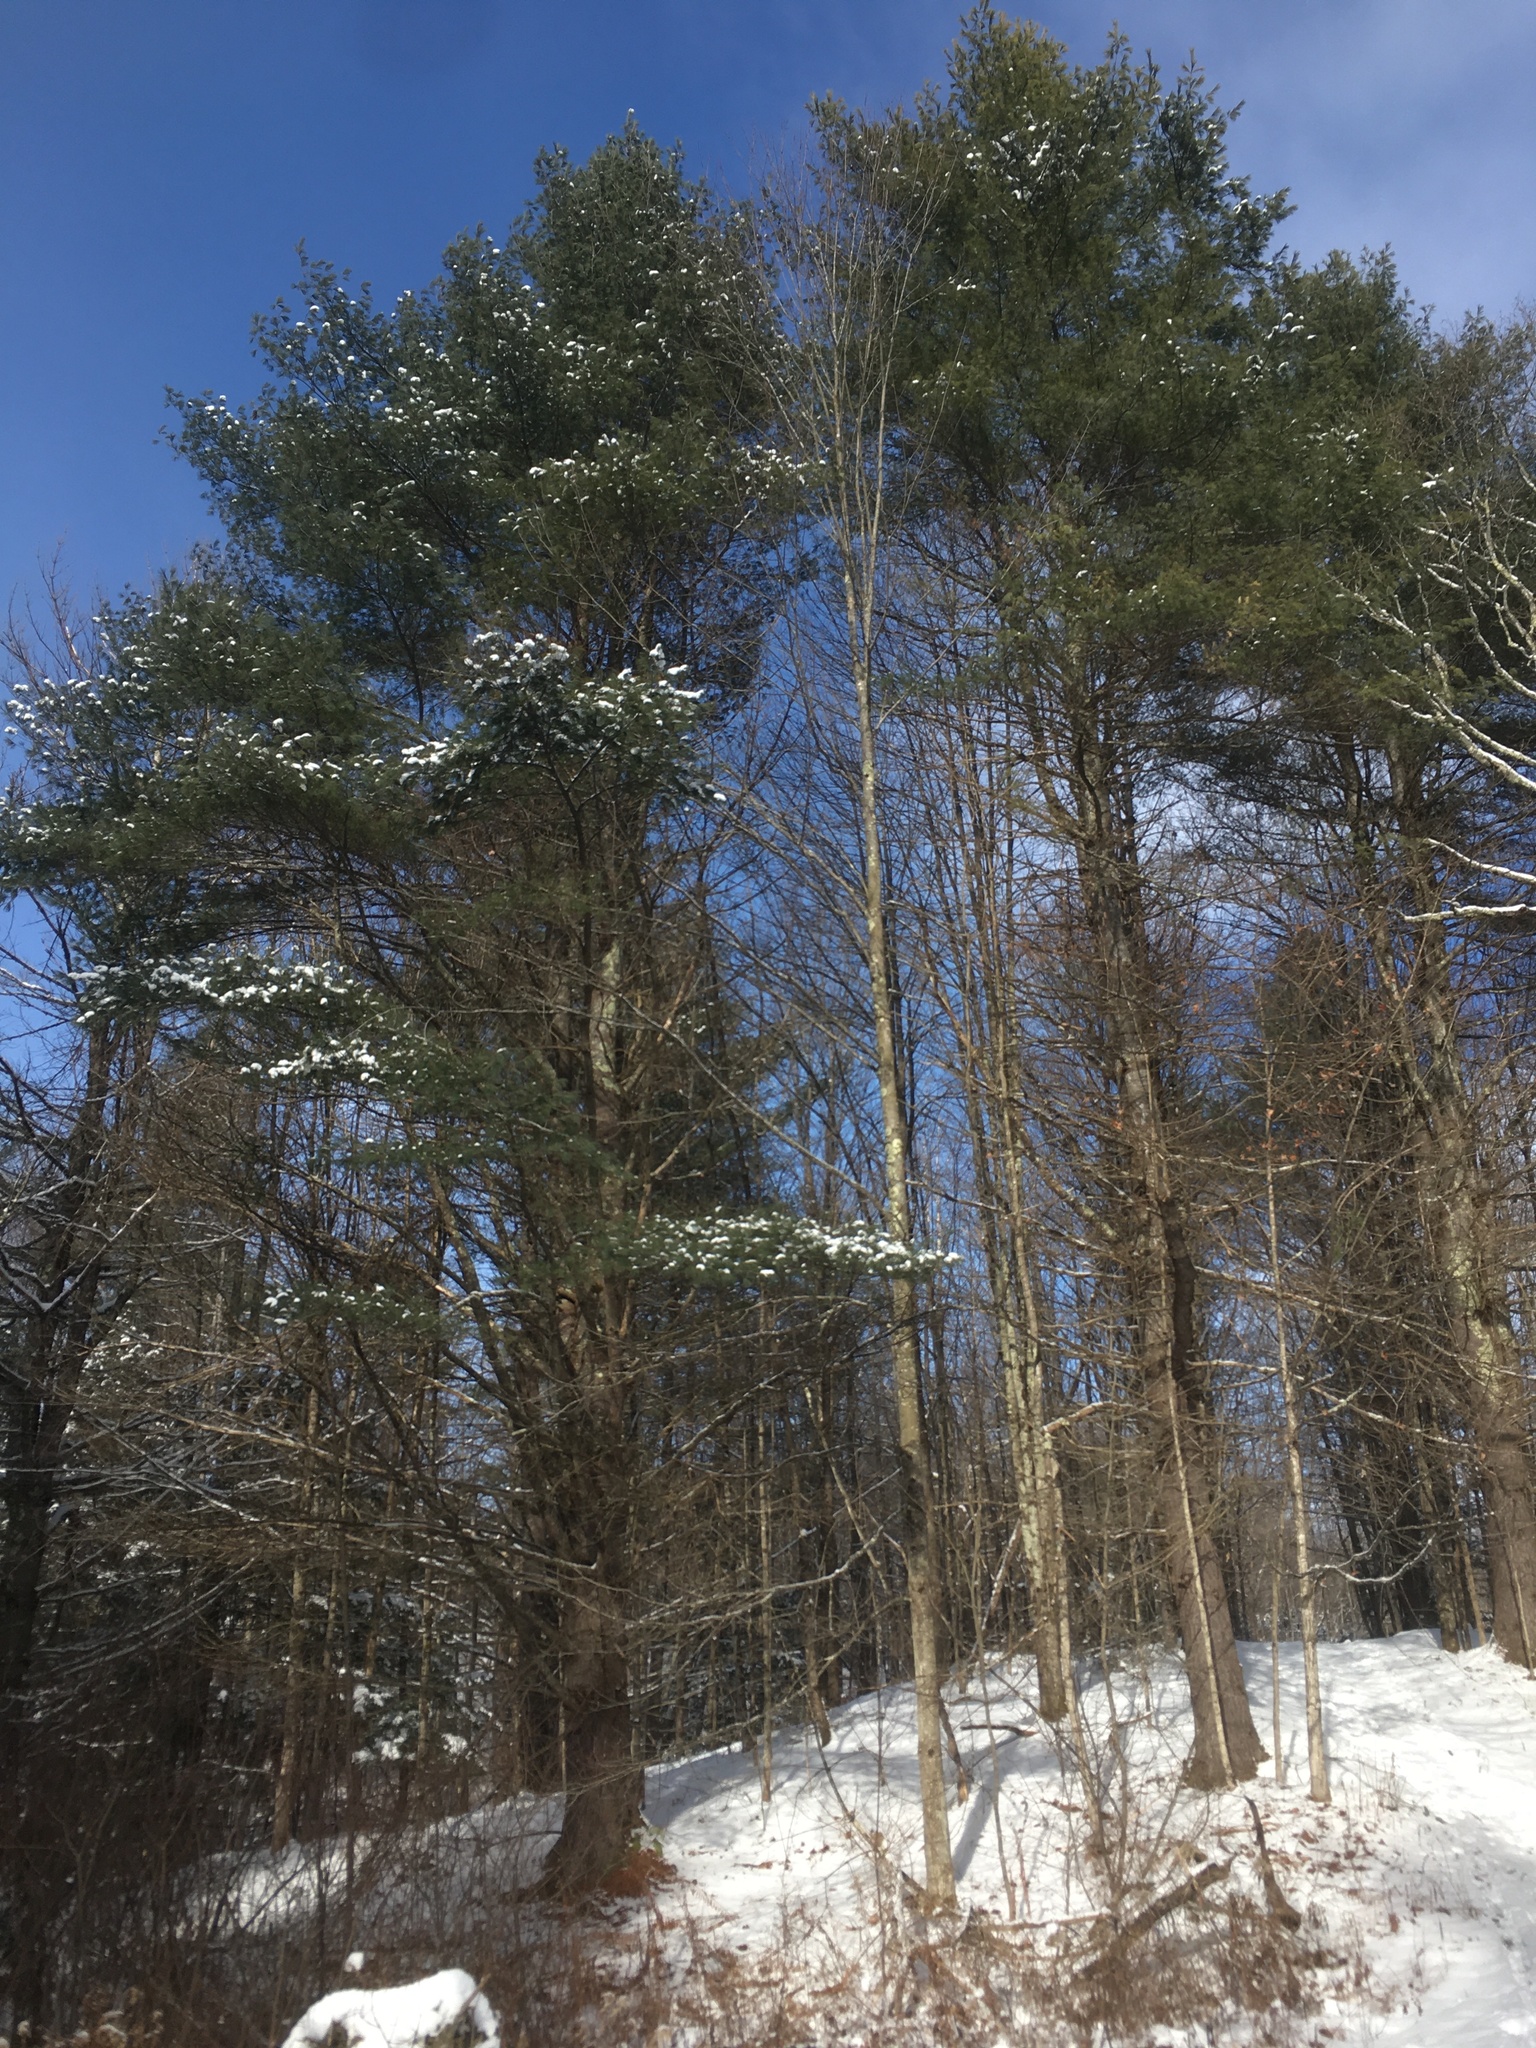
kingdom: Plantae
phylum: Tracheophyta
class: Pinopsida
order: Pinales
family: Pinaceae
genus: Pinus
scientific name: Pinus strobus
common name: Weymouth pine
